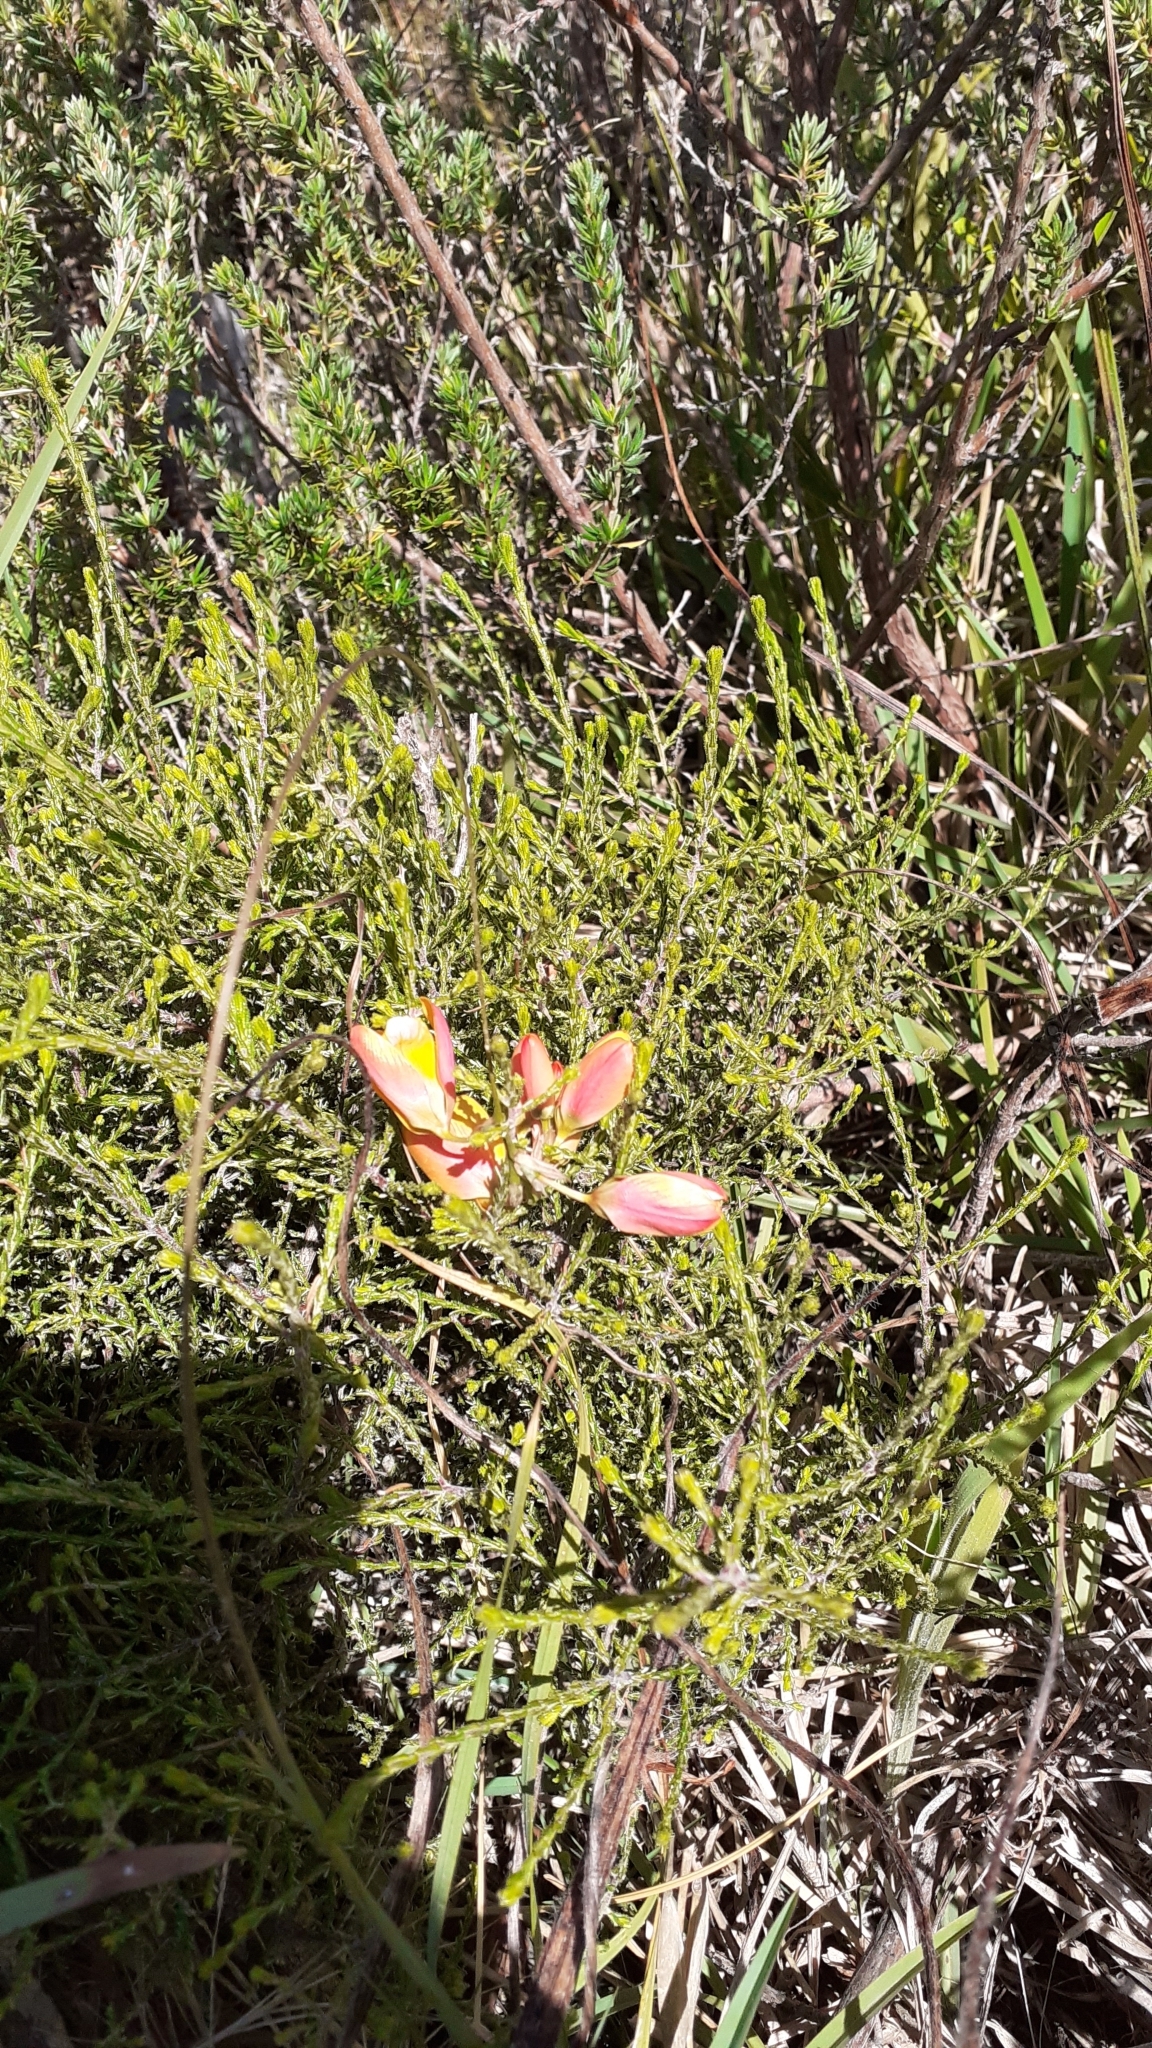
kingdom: Plantae
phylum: Tracheophyta
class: Liliopsida
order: Asparagales
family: Iridaceae
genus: Ixia
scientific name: Ixia dubia
